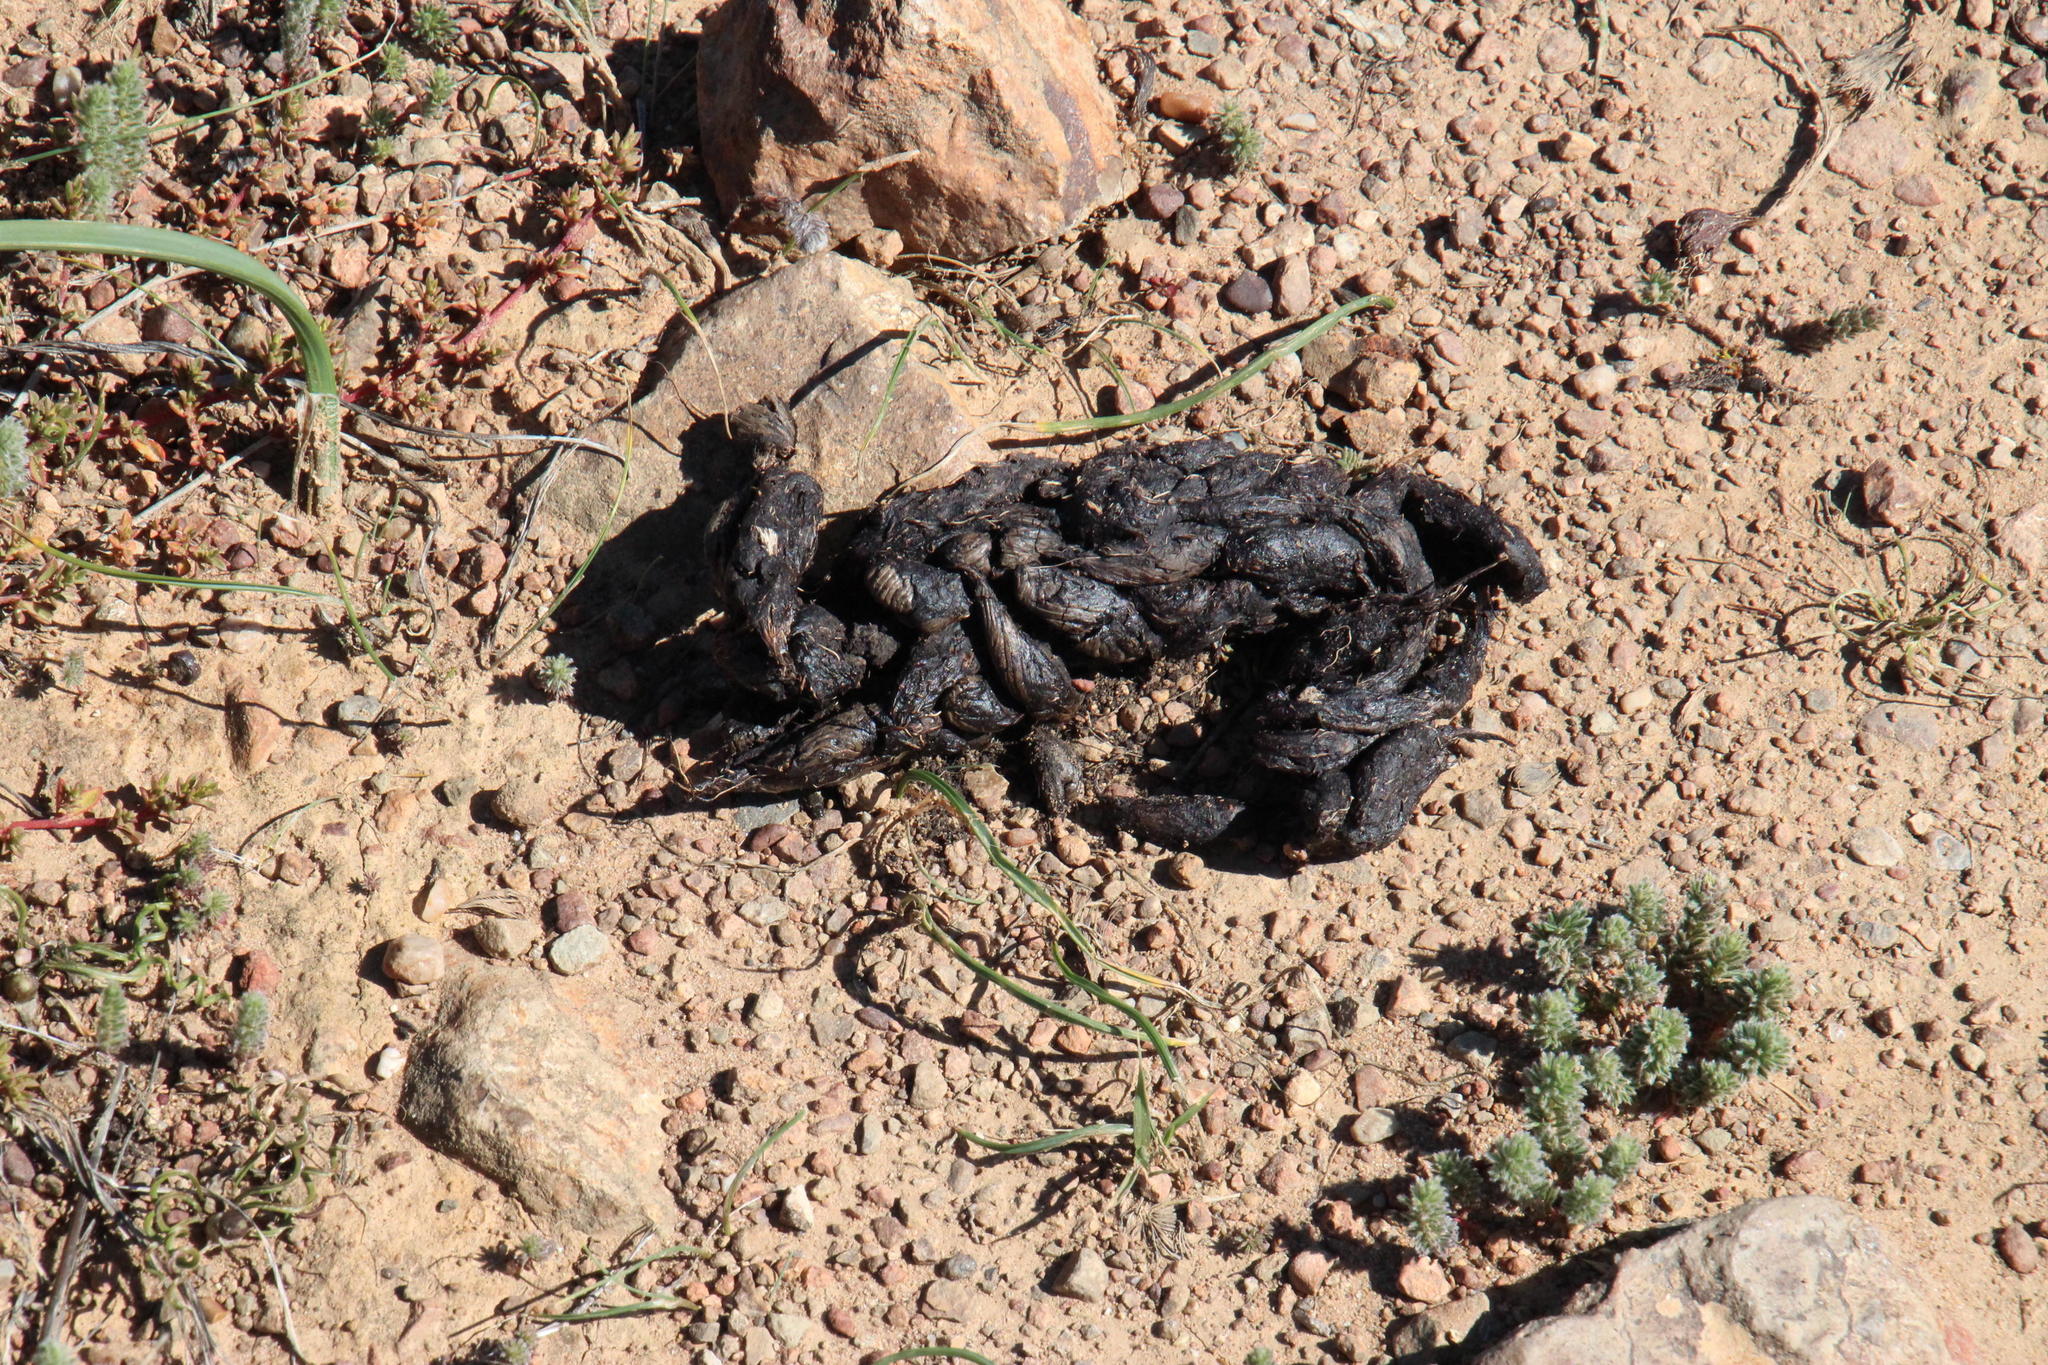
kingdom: Animalia
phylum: Chordata
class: Mammalia
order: Rodentia
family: Hystricidae
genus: Hystrix
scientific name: Hystrix africaeaustralis
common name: Cape porcupine
